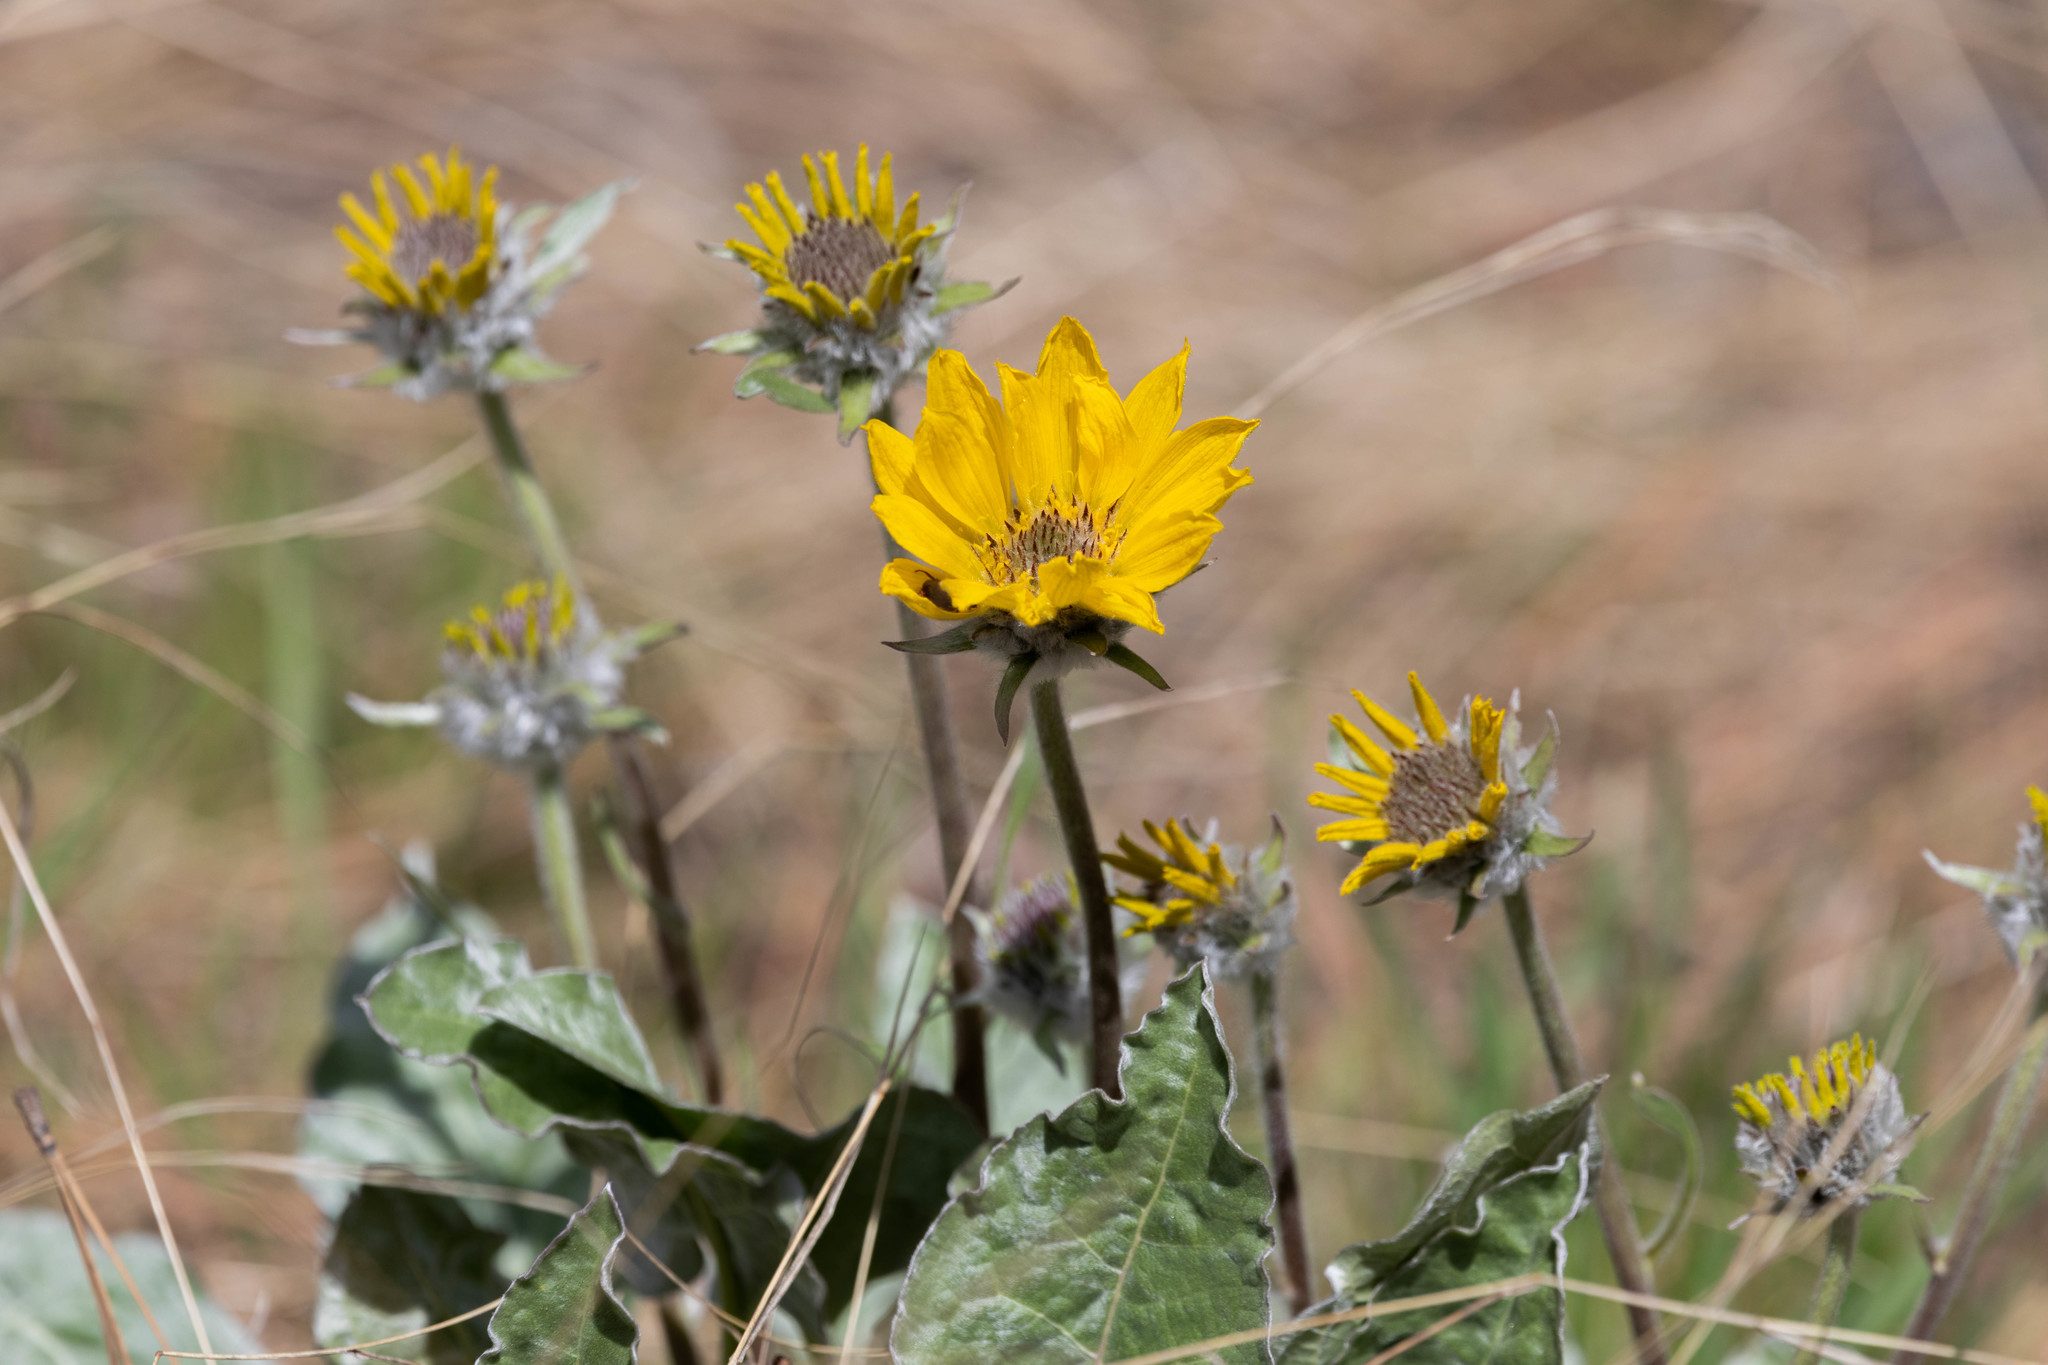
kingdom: Plantae
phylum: Tracheophyta
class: Magnoliopsida
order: Asterales
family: Asteraceae
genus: Wyethia
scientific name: Wyethia sagittata
